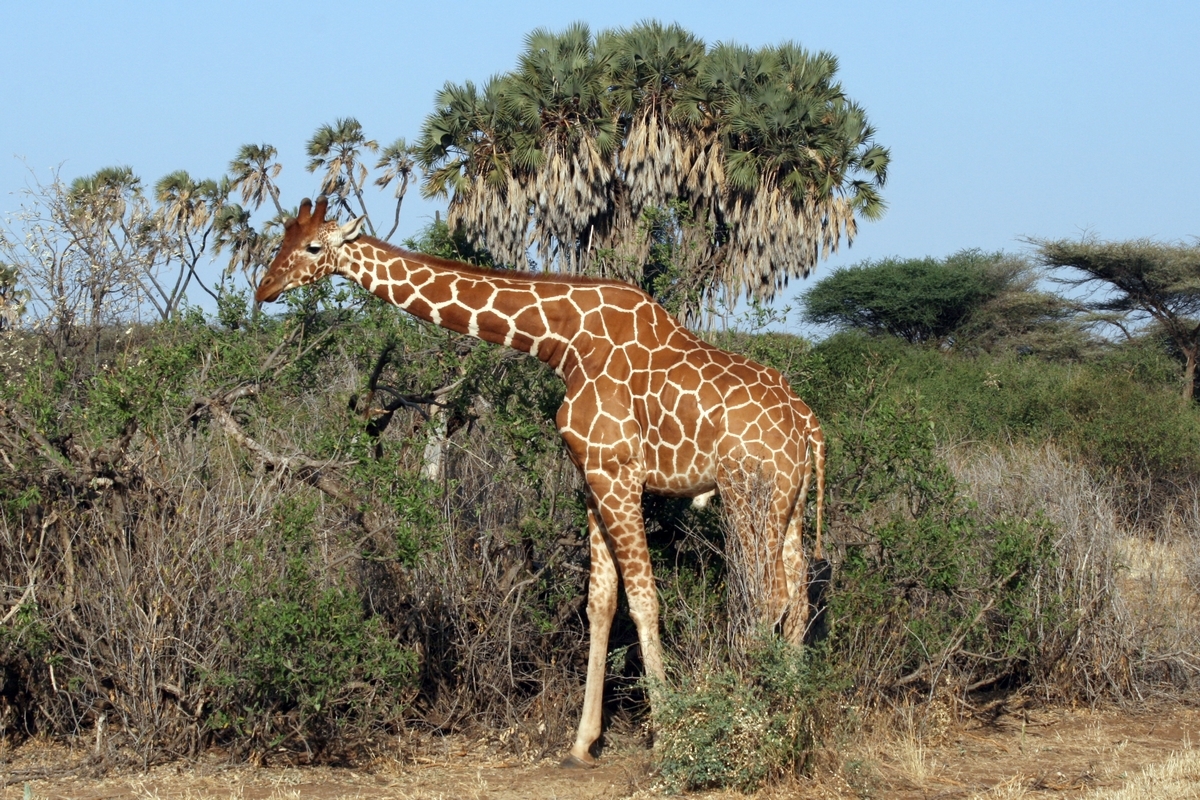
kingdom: Animalia
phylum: Chordata
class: Mammalia
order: Artiodactyla
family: Giraffidae
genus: Giraffa
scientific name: Giraffa reticulata
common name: Reticulated giraffe
